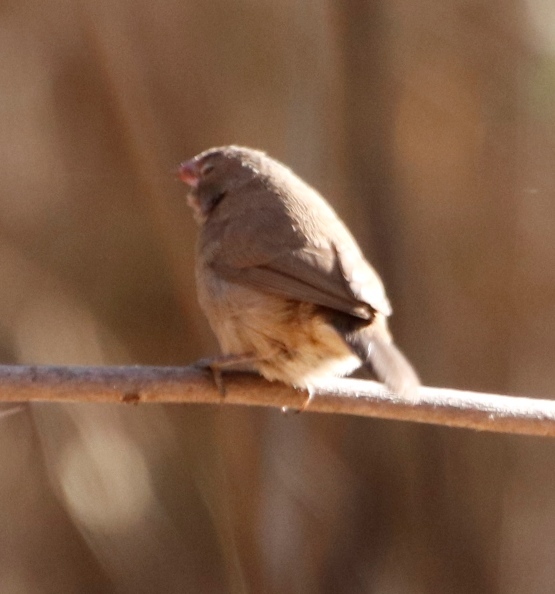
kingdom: Animalia
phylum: Chordata
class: Aves
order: Passeriformes
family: Estrildidae
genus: Lagonosticta
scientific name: Lagonosticta senegala
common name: Red-billed firefinch
